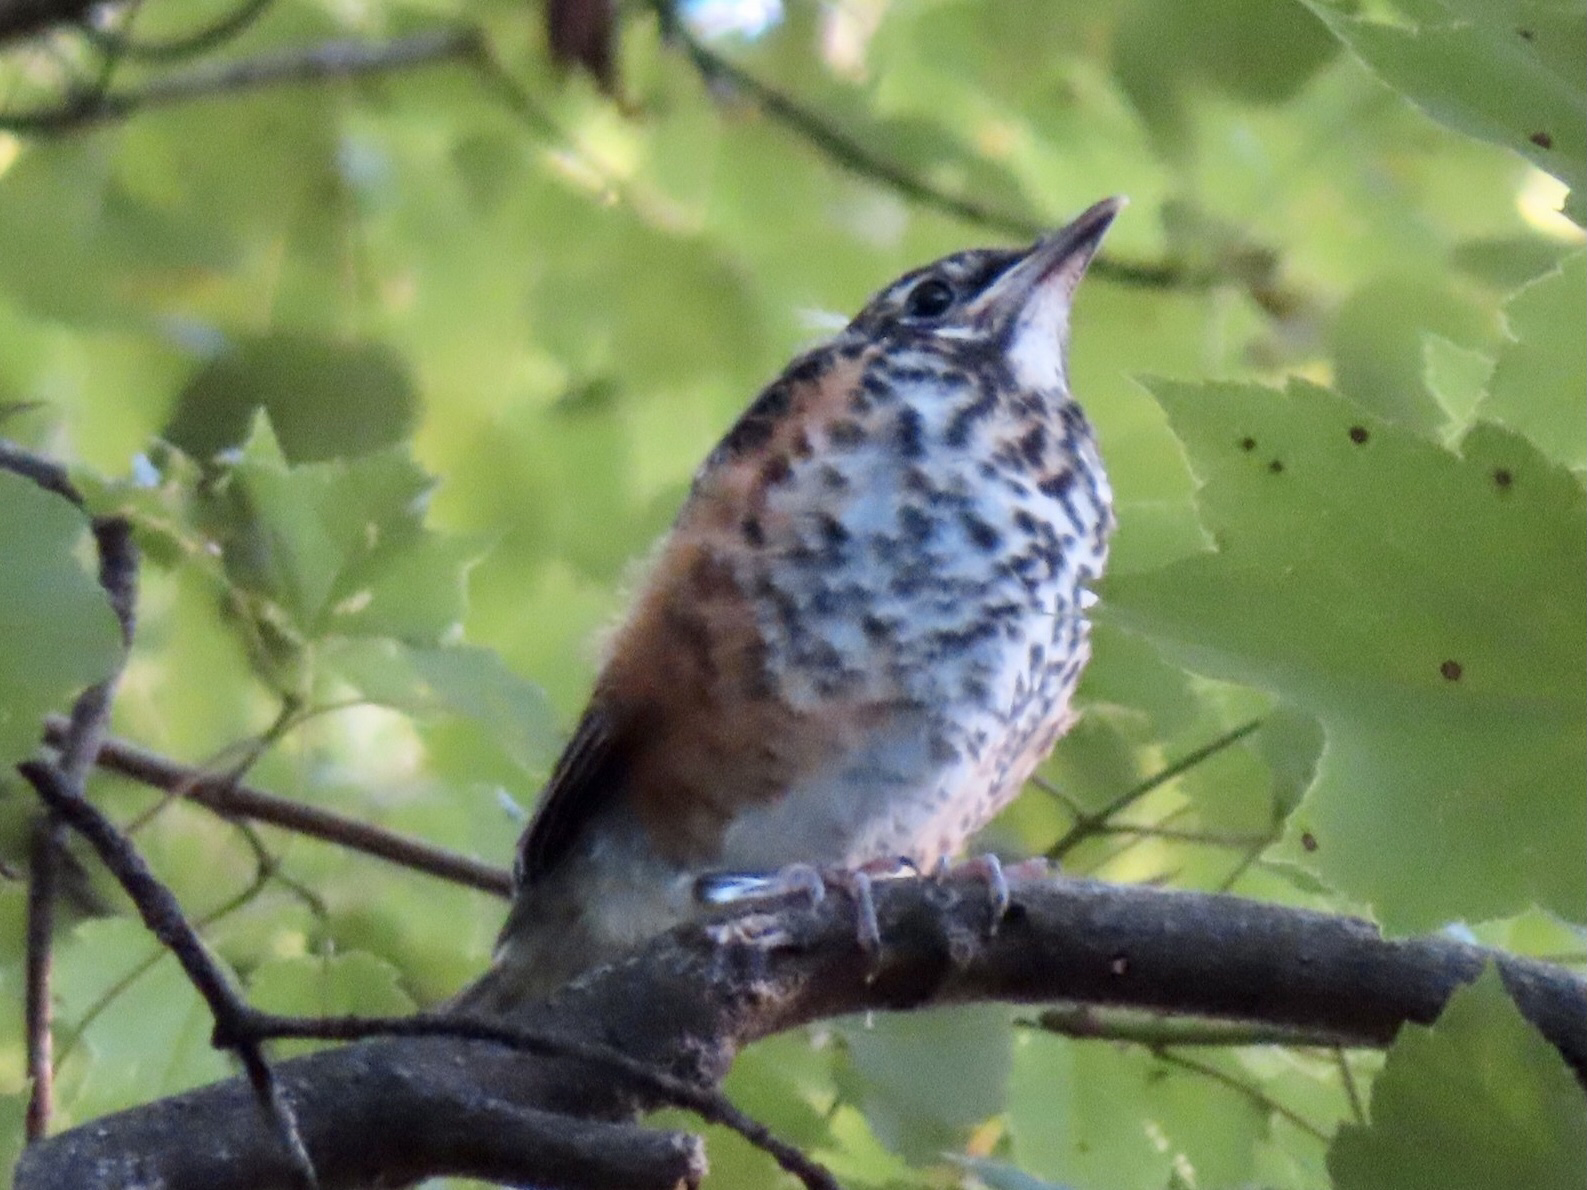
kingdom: Animalia
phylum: Chordata
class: Aves
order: Passeriformes
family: Turdidae
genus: Turdus
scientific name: Turdus migratorius
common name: American robin
